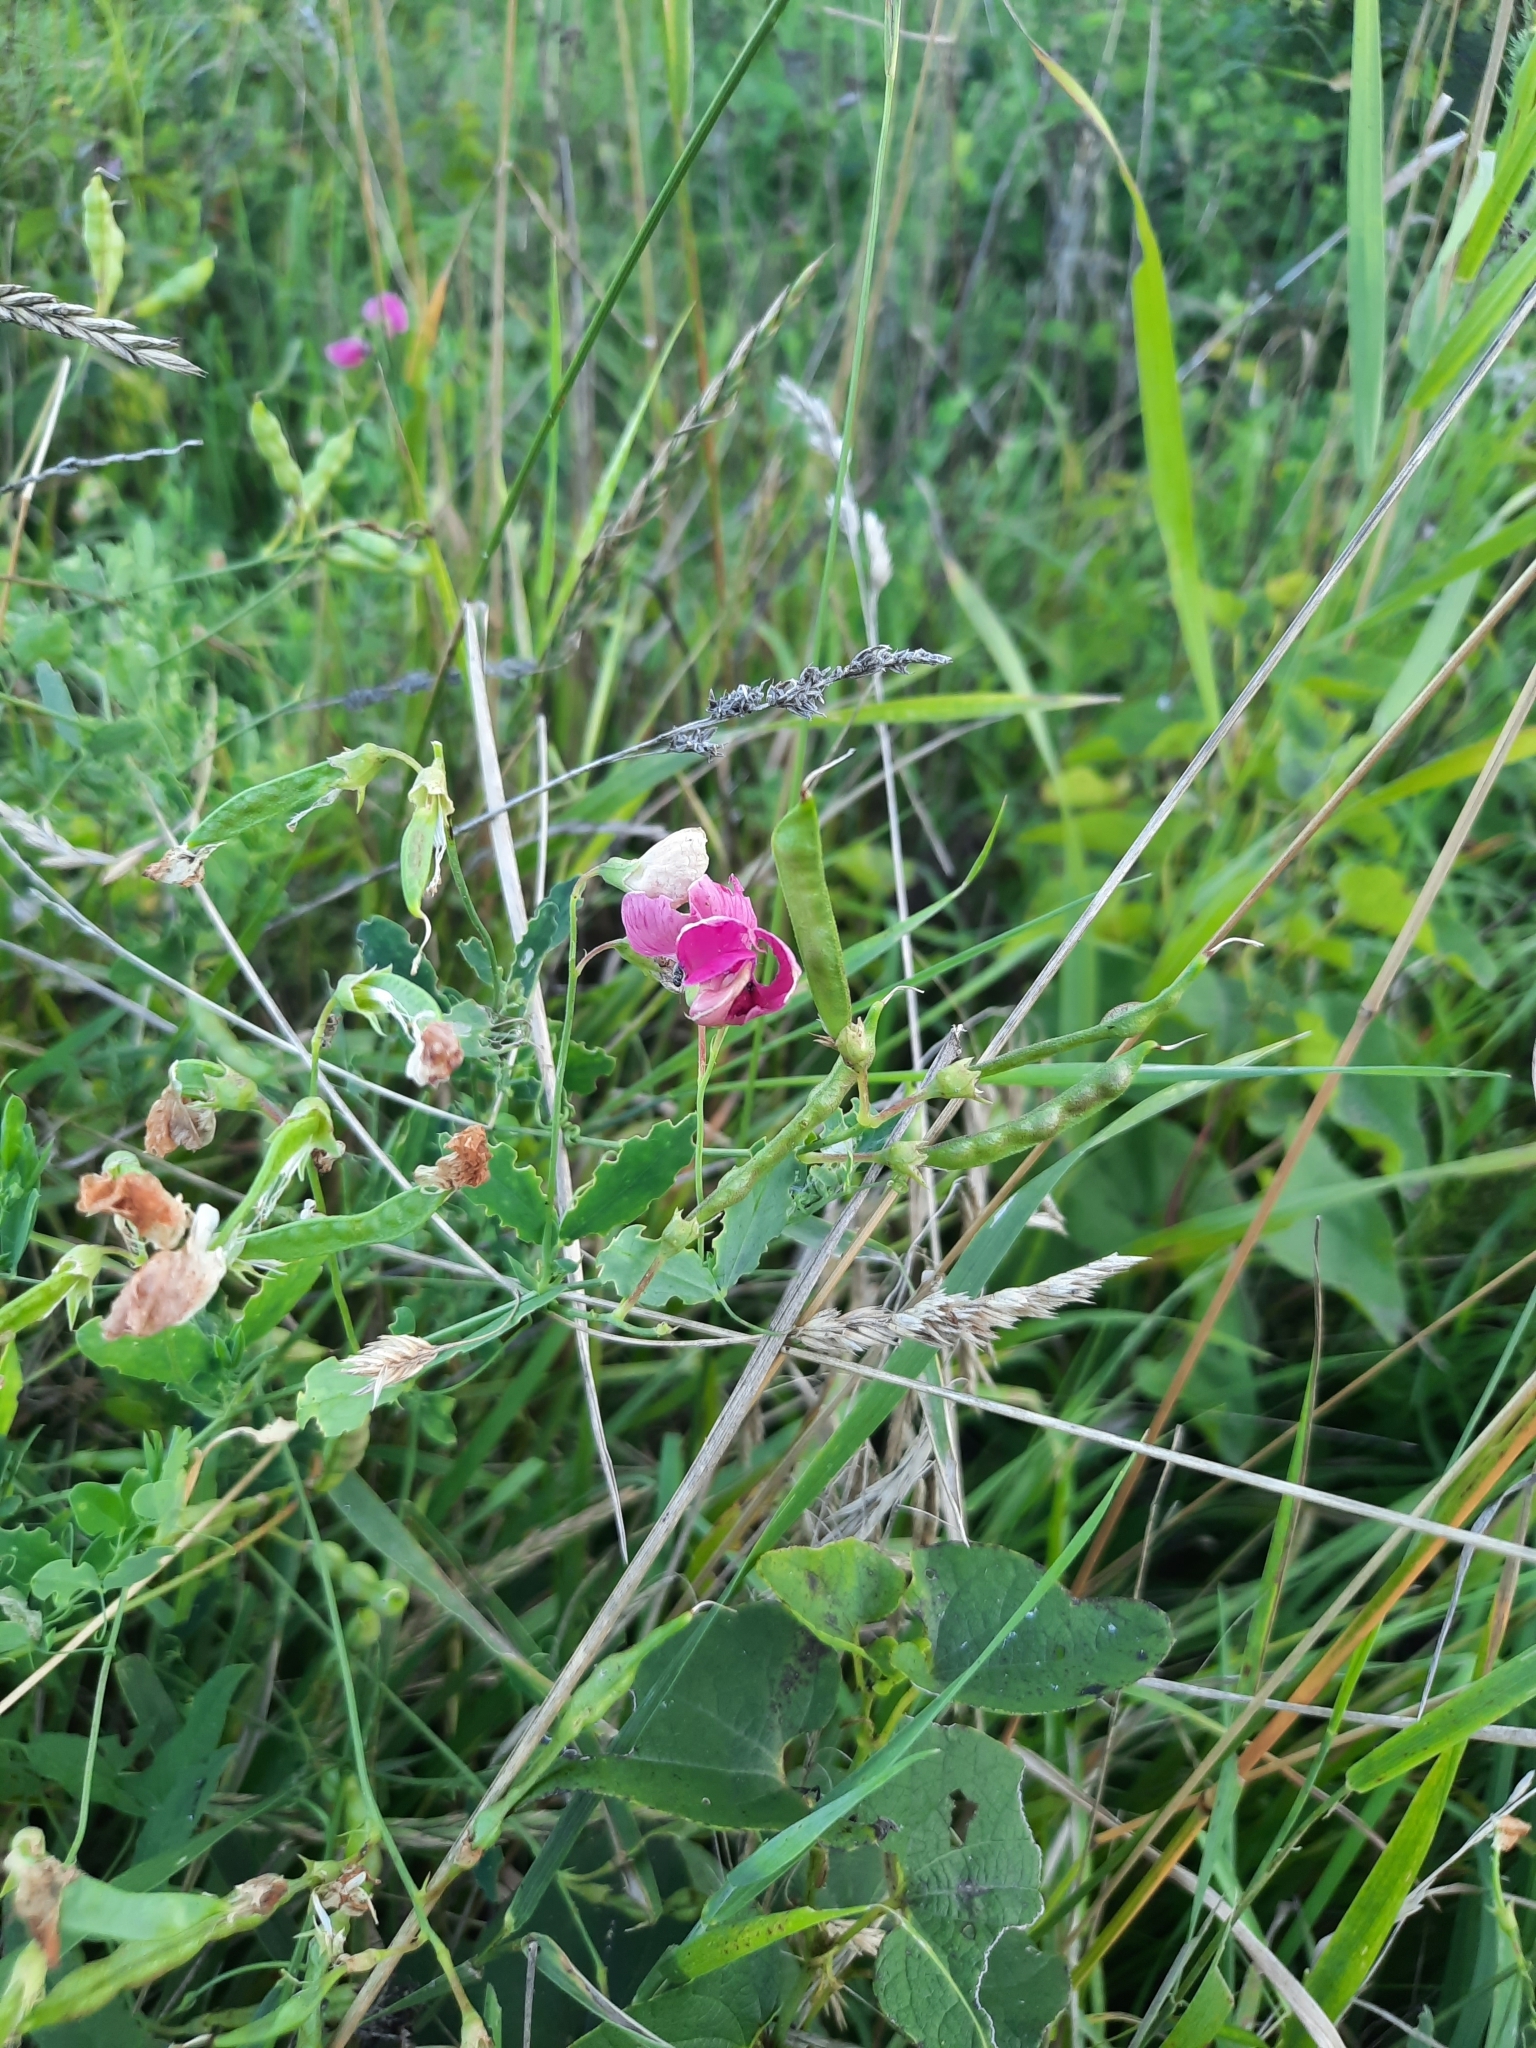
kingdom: Plantae
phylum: Tracheophyta
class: Magnoliopsida
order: Fabales
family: Fabaceae
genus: Lathyrus
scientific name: Lathyrus tuberosus
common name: Tuberous pea
